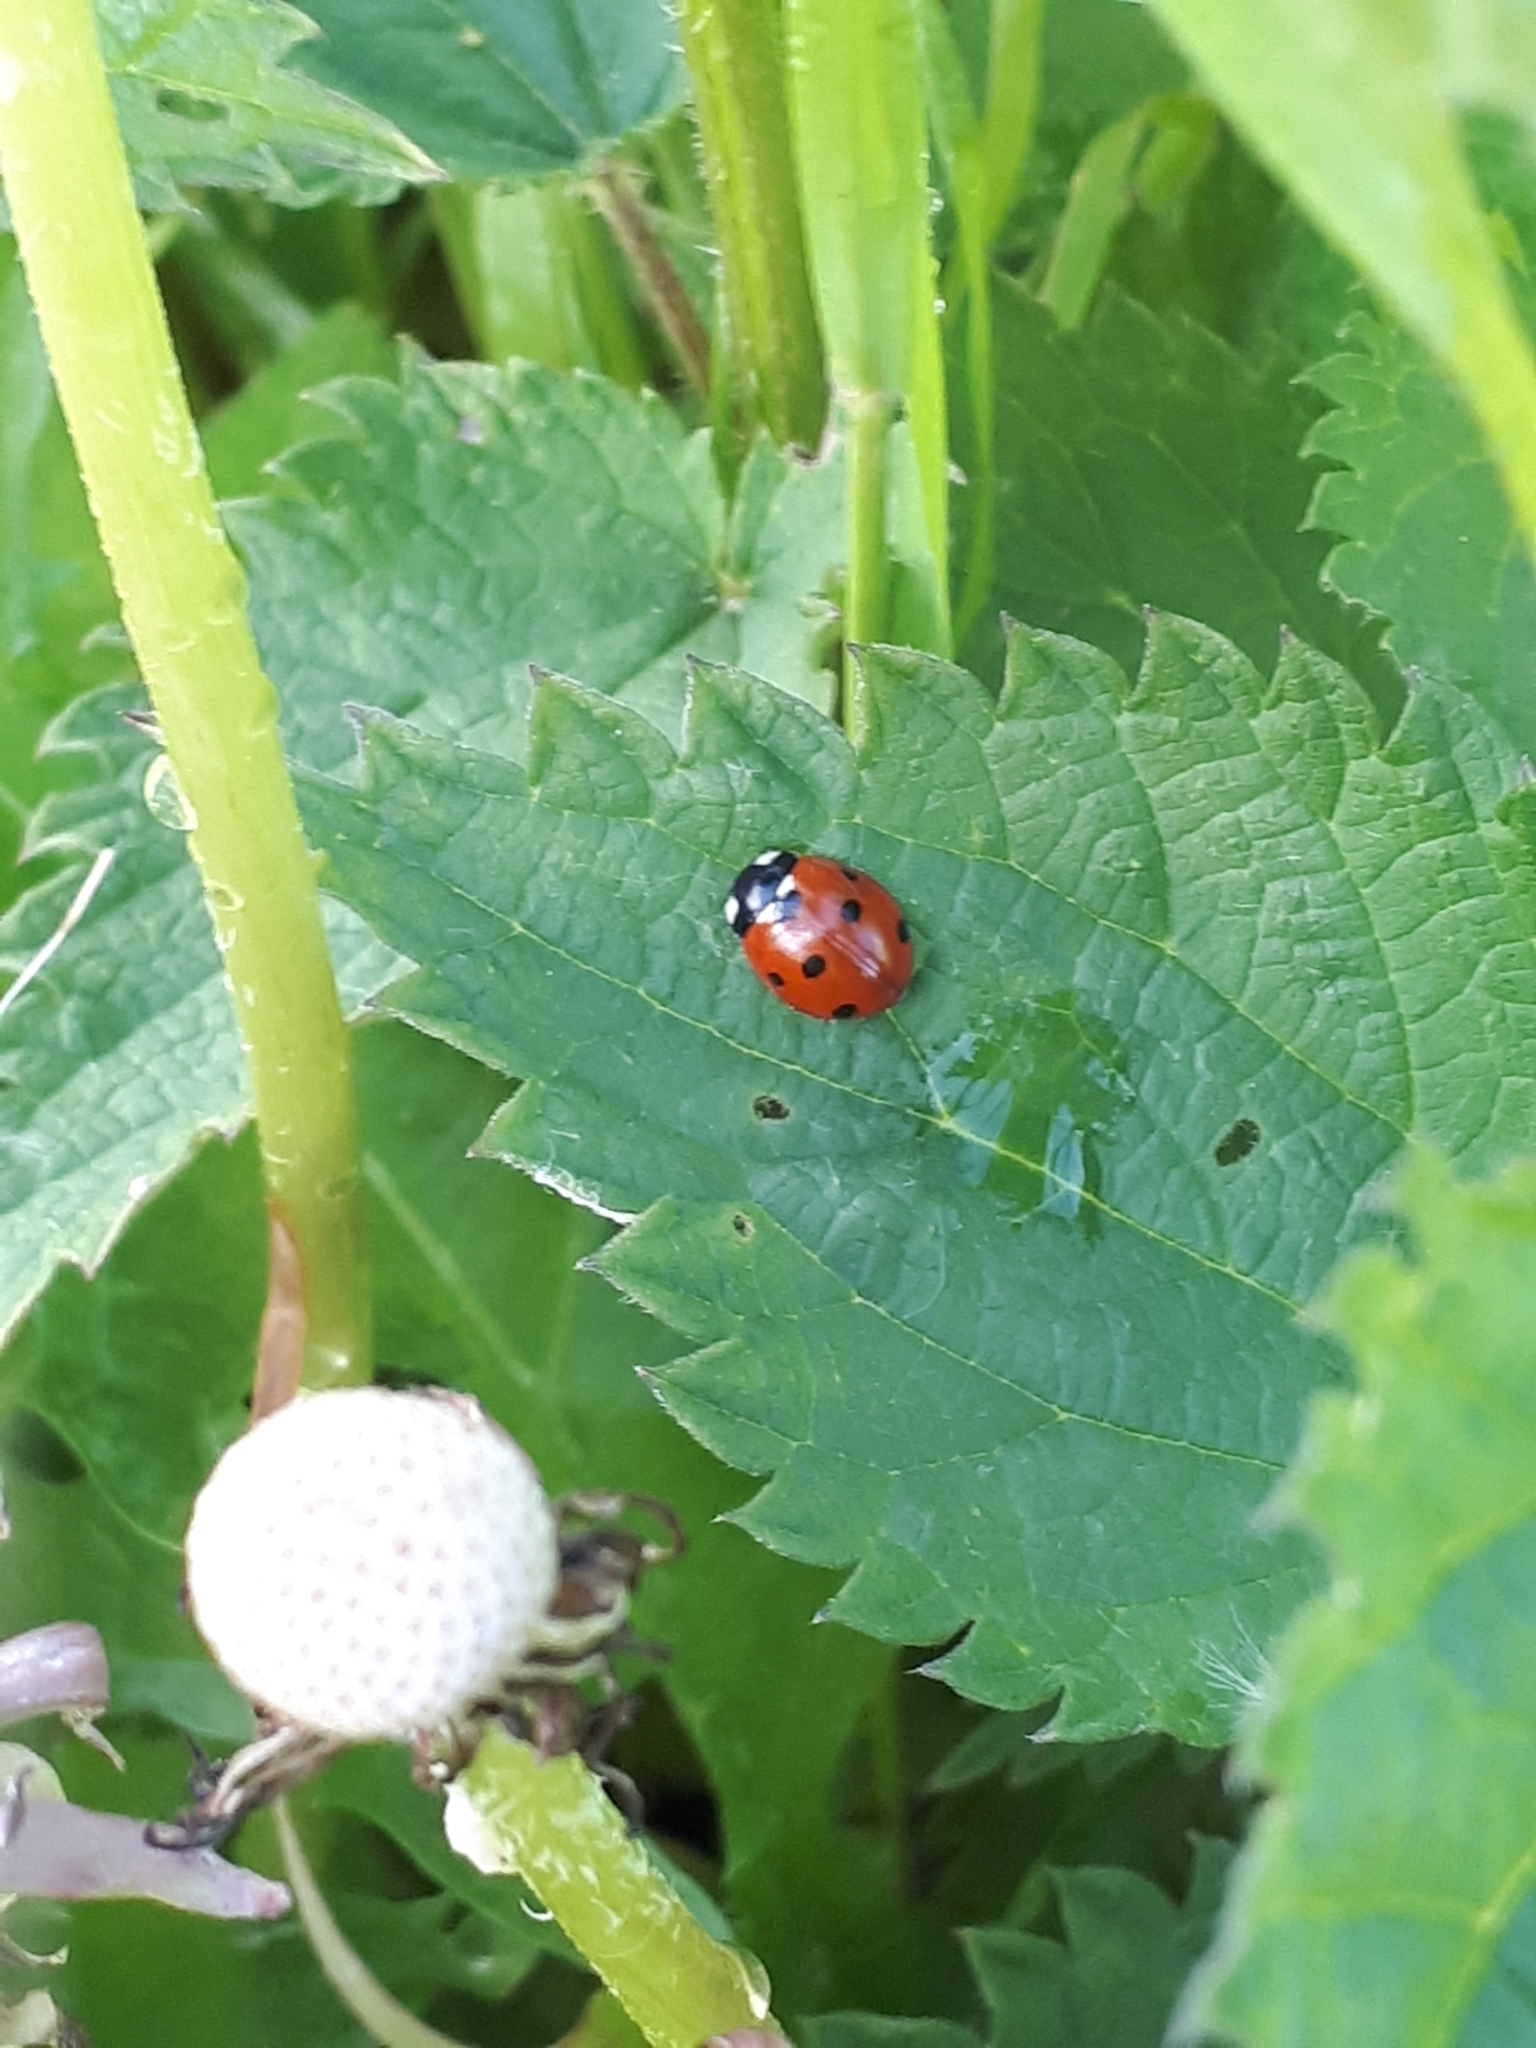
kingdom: Animalia
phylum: Arthropoda
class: Insecta
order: Coleoptera
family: Coccinellidae
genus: Coccinella
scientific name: Coccinella septempunctata
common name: Sevenspotted lady beetle
